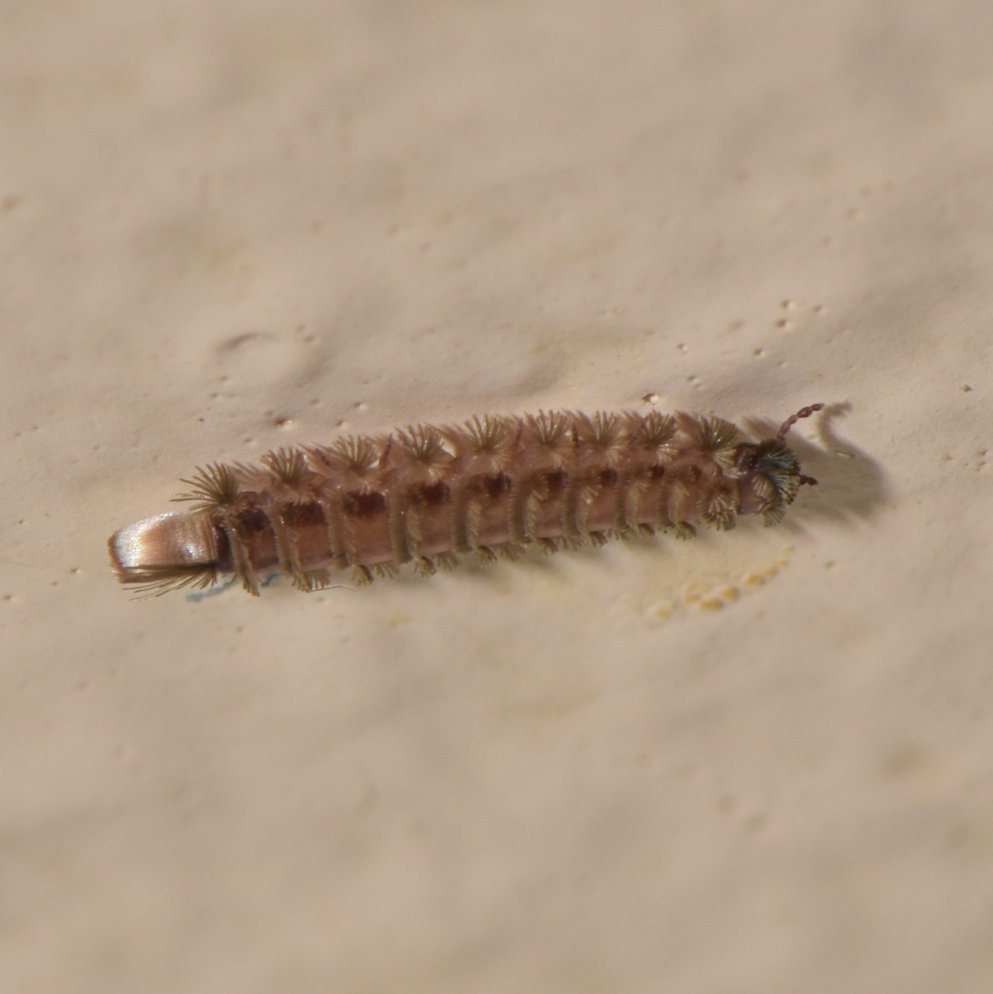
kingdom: Animalia
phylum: Arthropoda
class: Diplopoda
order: Polyxenida
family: Polyxenidae
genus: Polyxenus
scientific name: Polyxenus lagurus
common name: Bristly millipede
